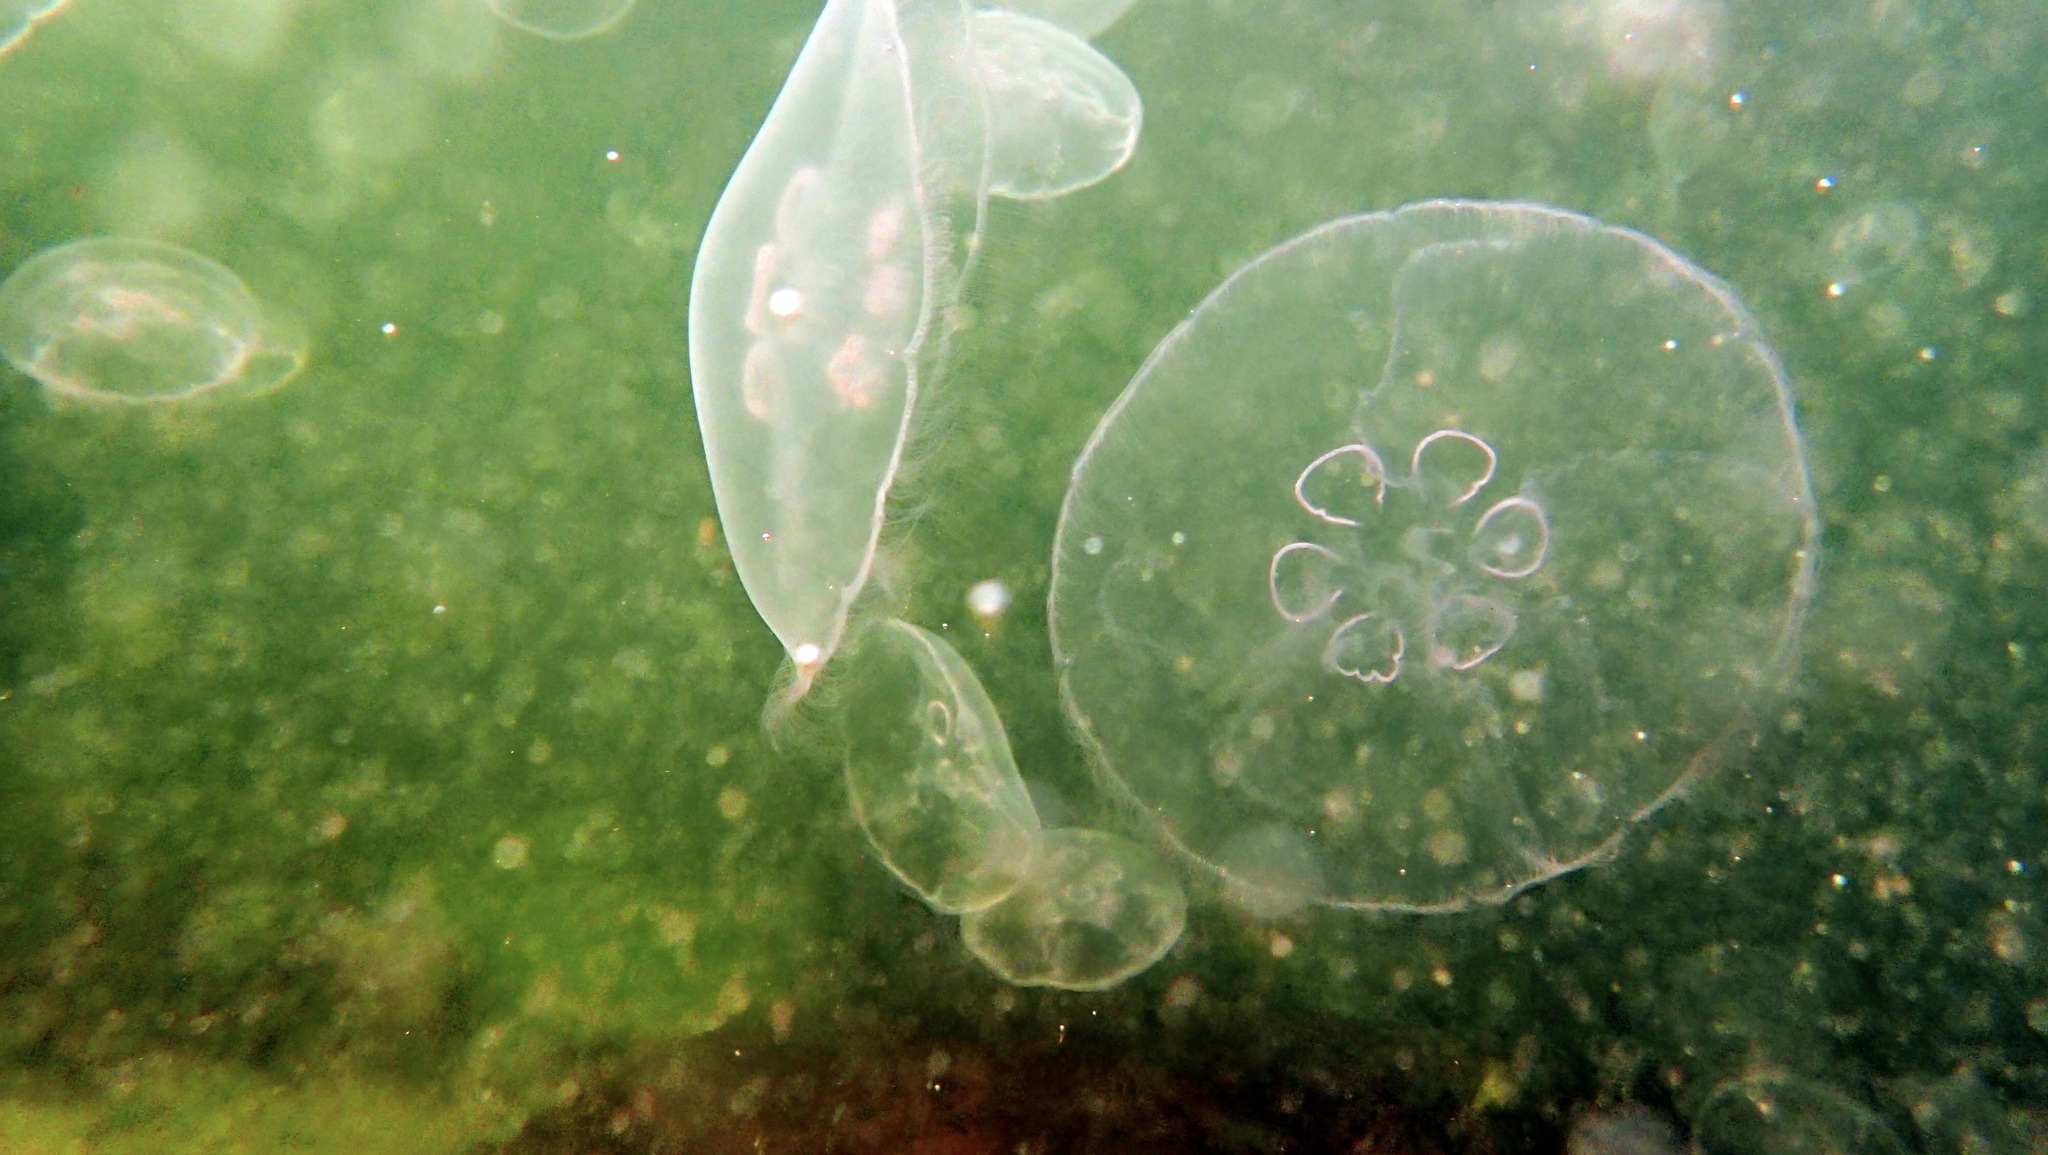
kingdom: Animalia
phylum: Cnidaria
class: Scyphozoa
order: Semaeostomeae
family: Ulmaridae
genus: Aurelia
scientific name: Aurelia aurita
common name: Moon jellyfish
